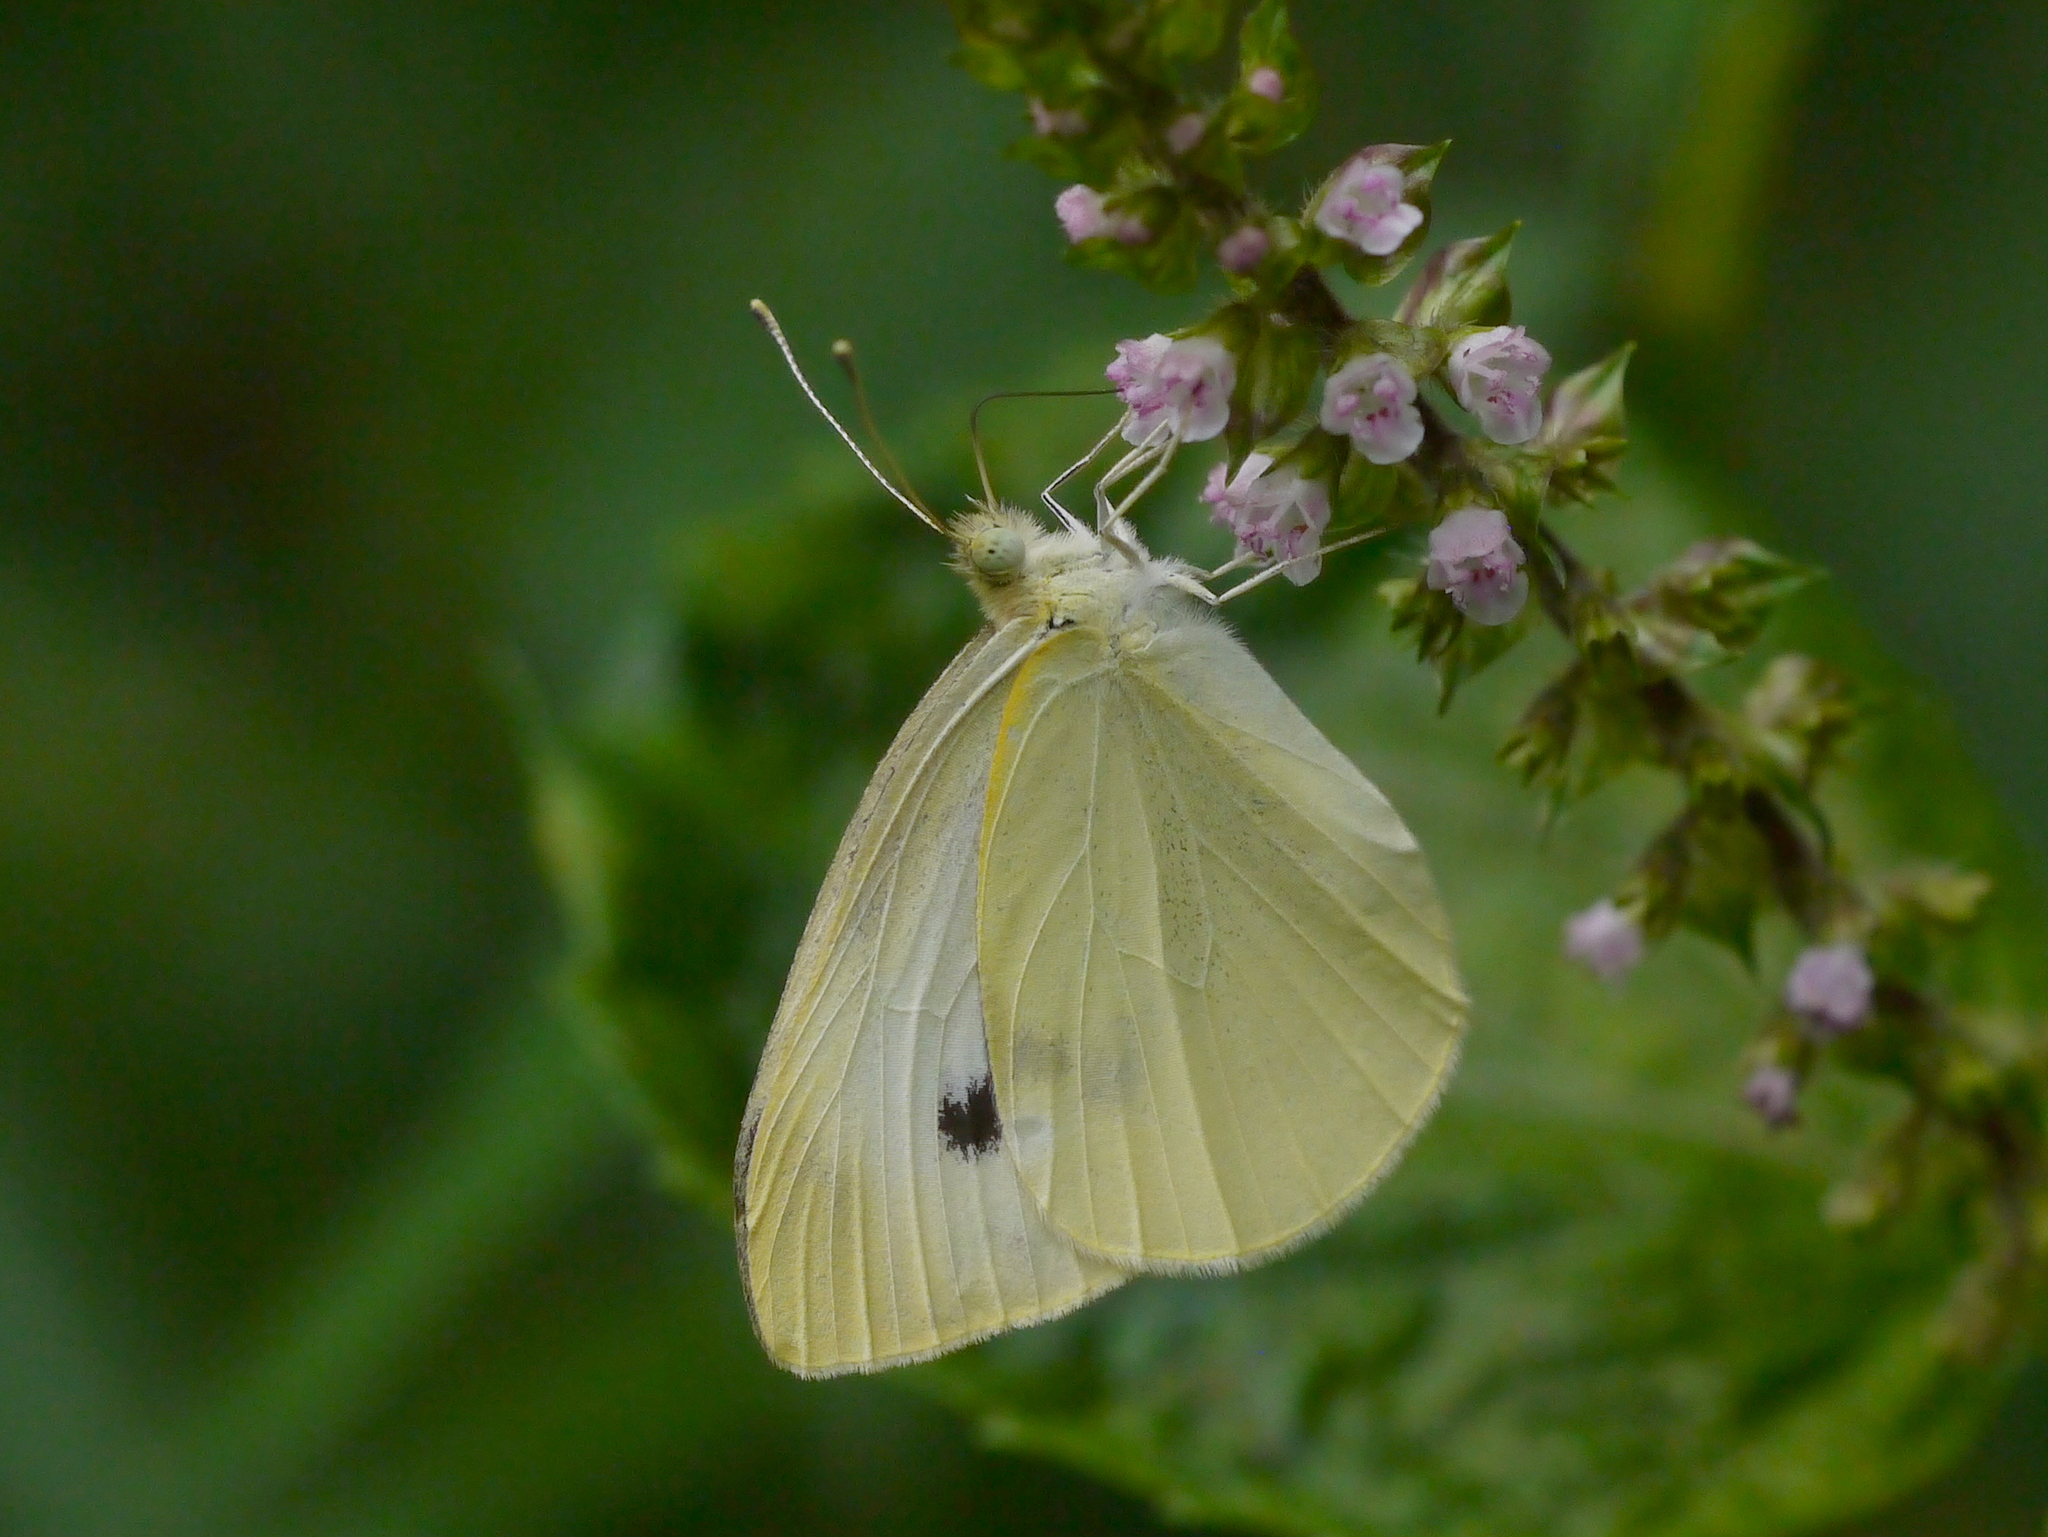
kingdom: Animalia
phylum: Arthropoda
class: Insecta
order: Lepidoptera
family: Pieridae
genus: Pieris
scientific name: Pieris rapae
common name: Small white
